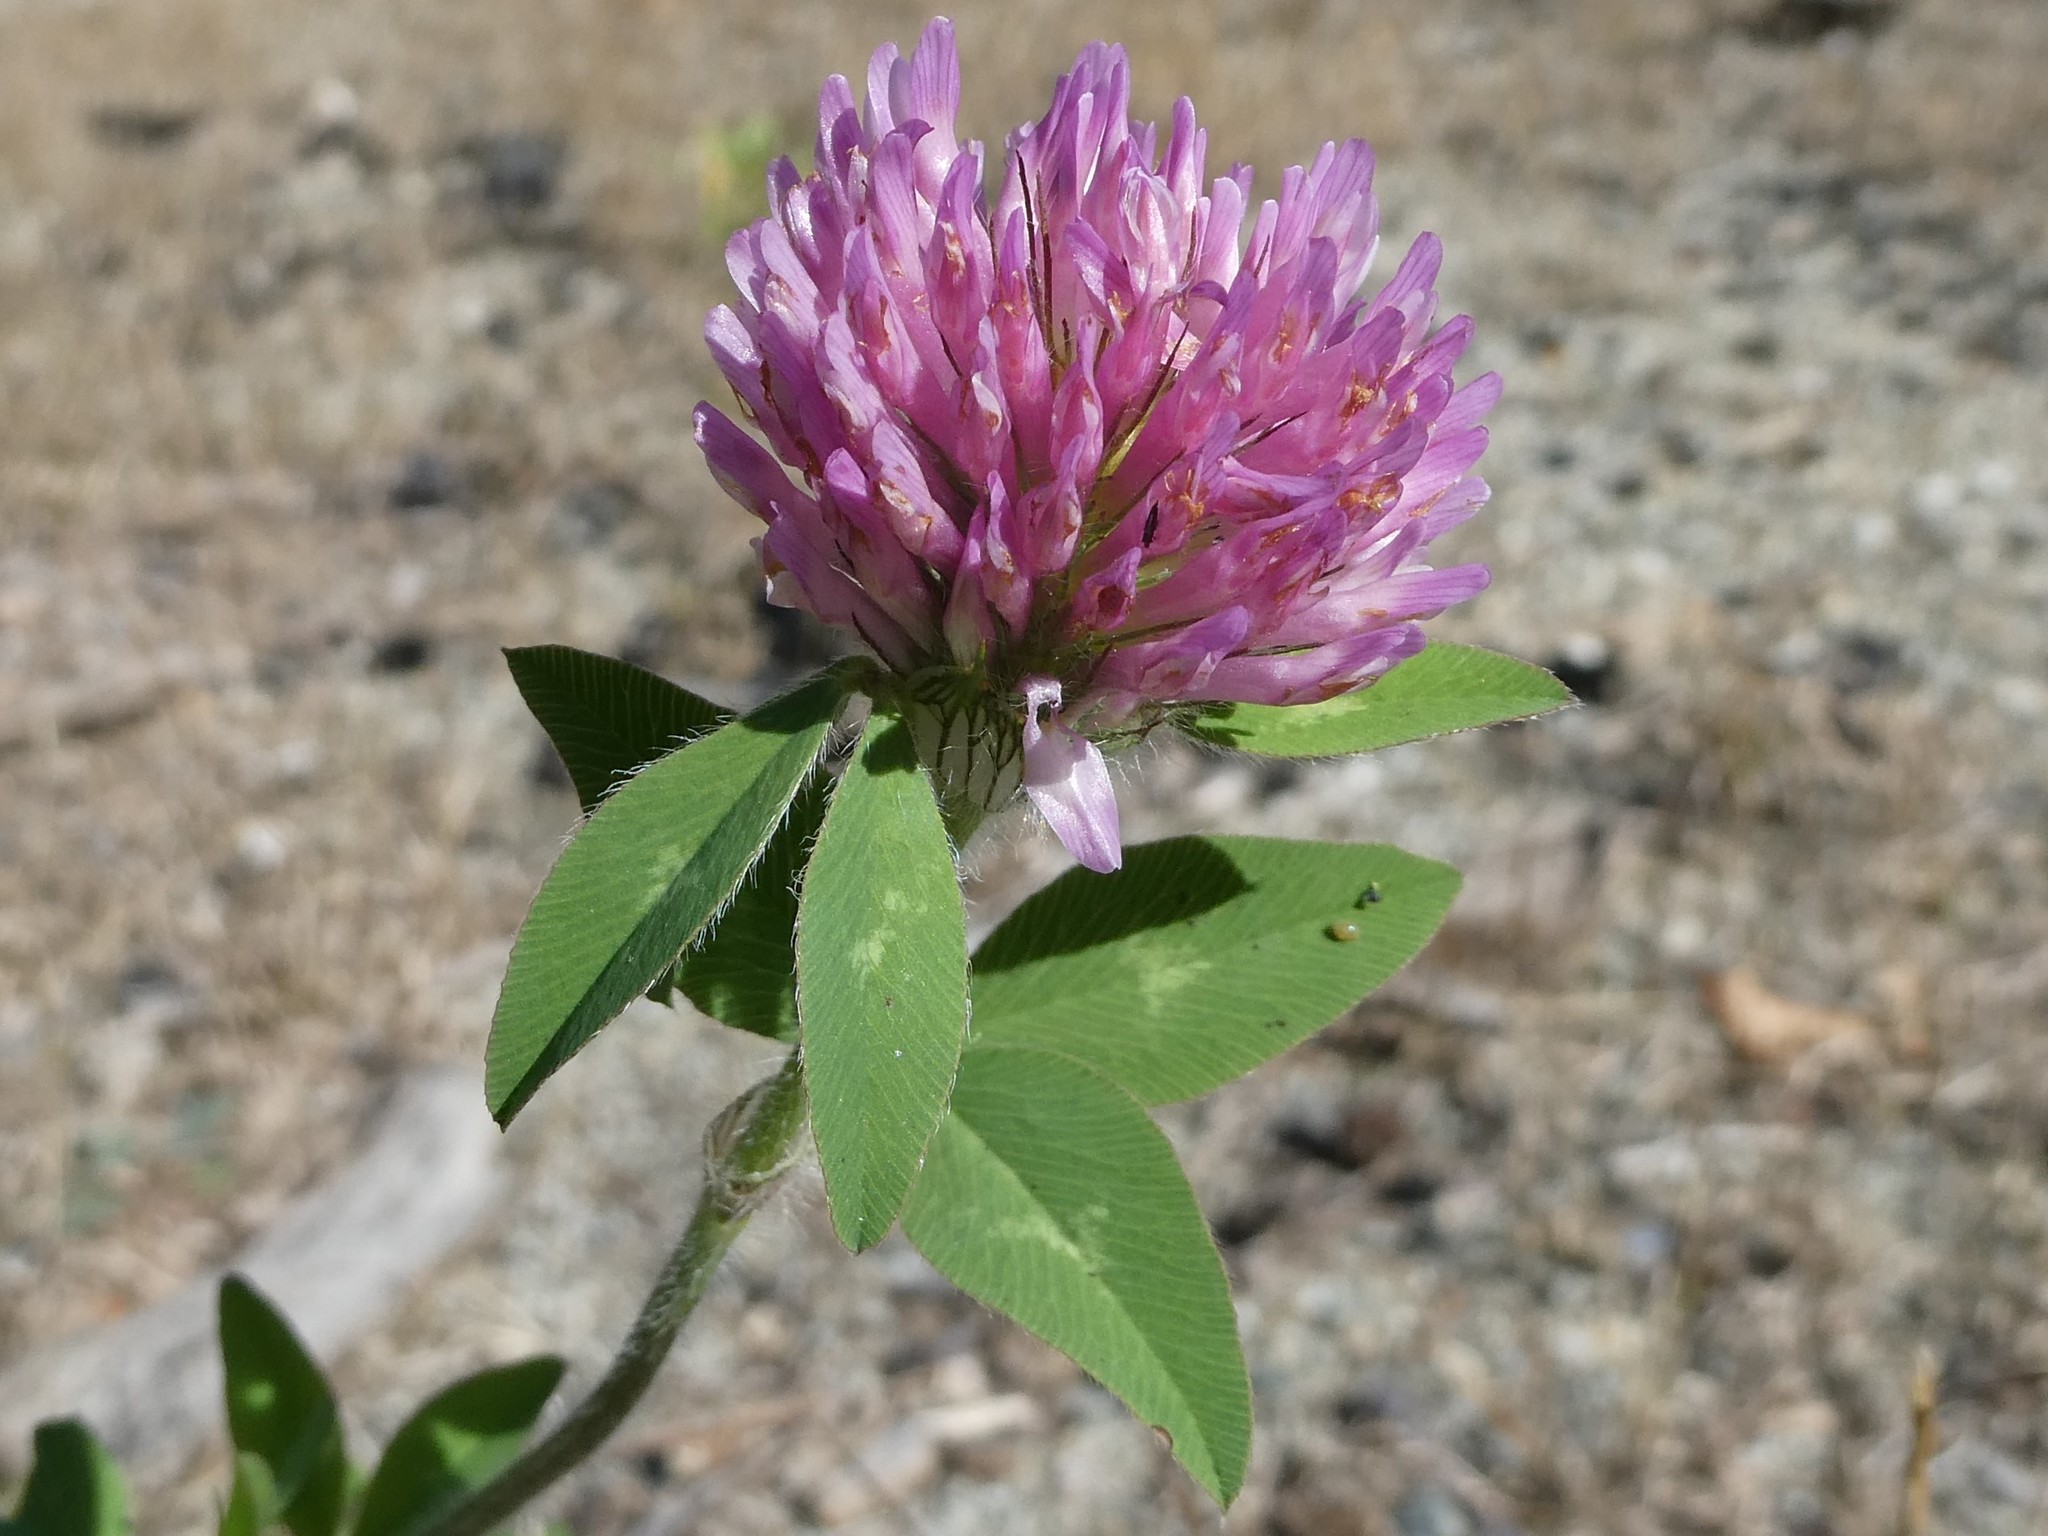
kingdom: Plantae
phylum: Tracheophyta
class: Magnoliopsida
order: Fabales
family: Fabaceae
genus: Trifolium
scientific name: Trifolium pratense
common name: Red clover
